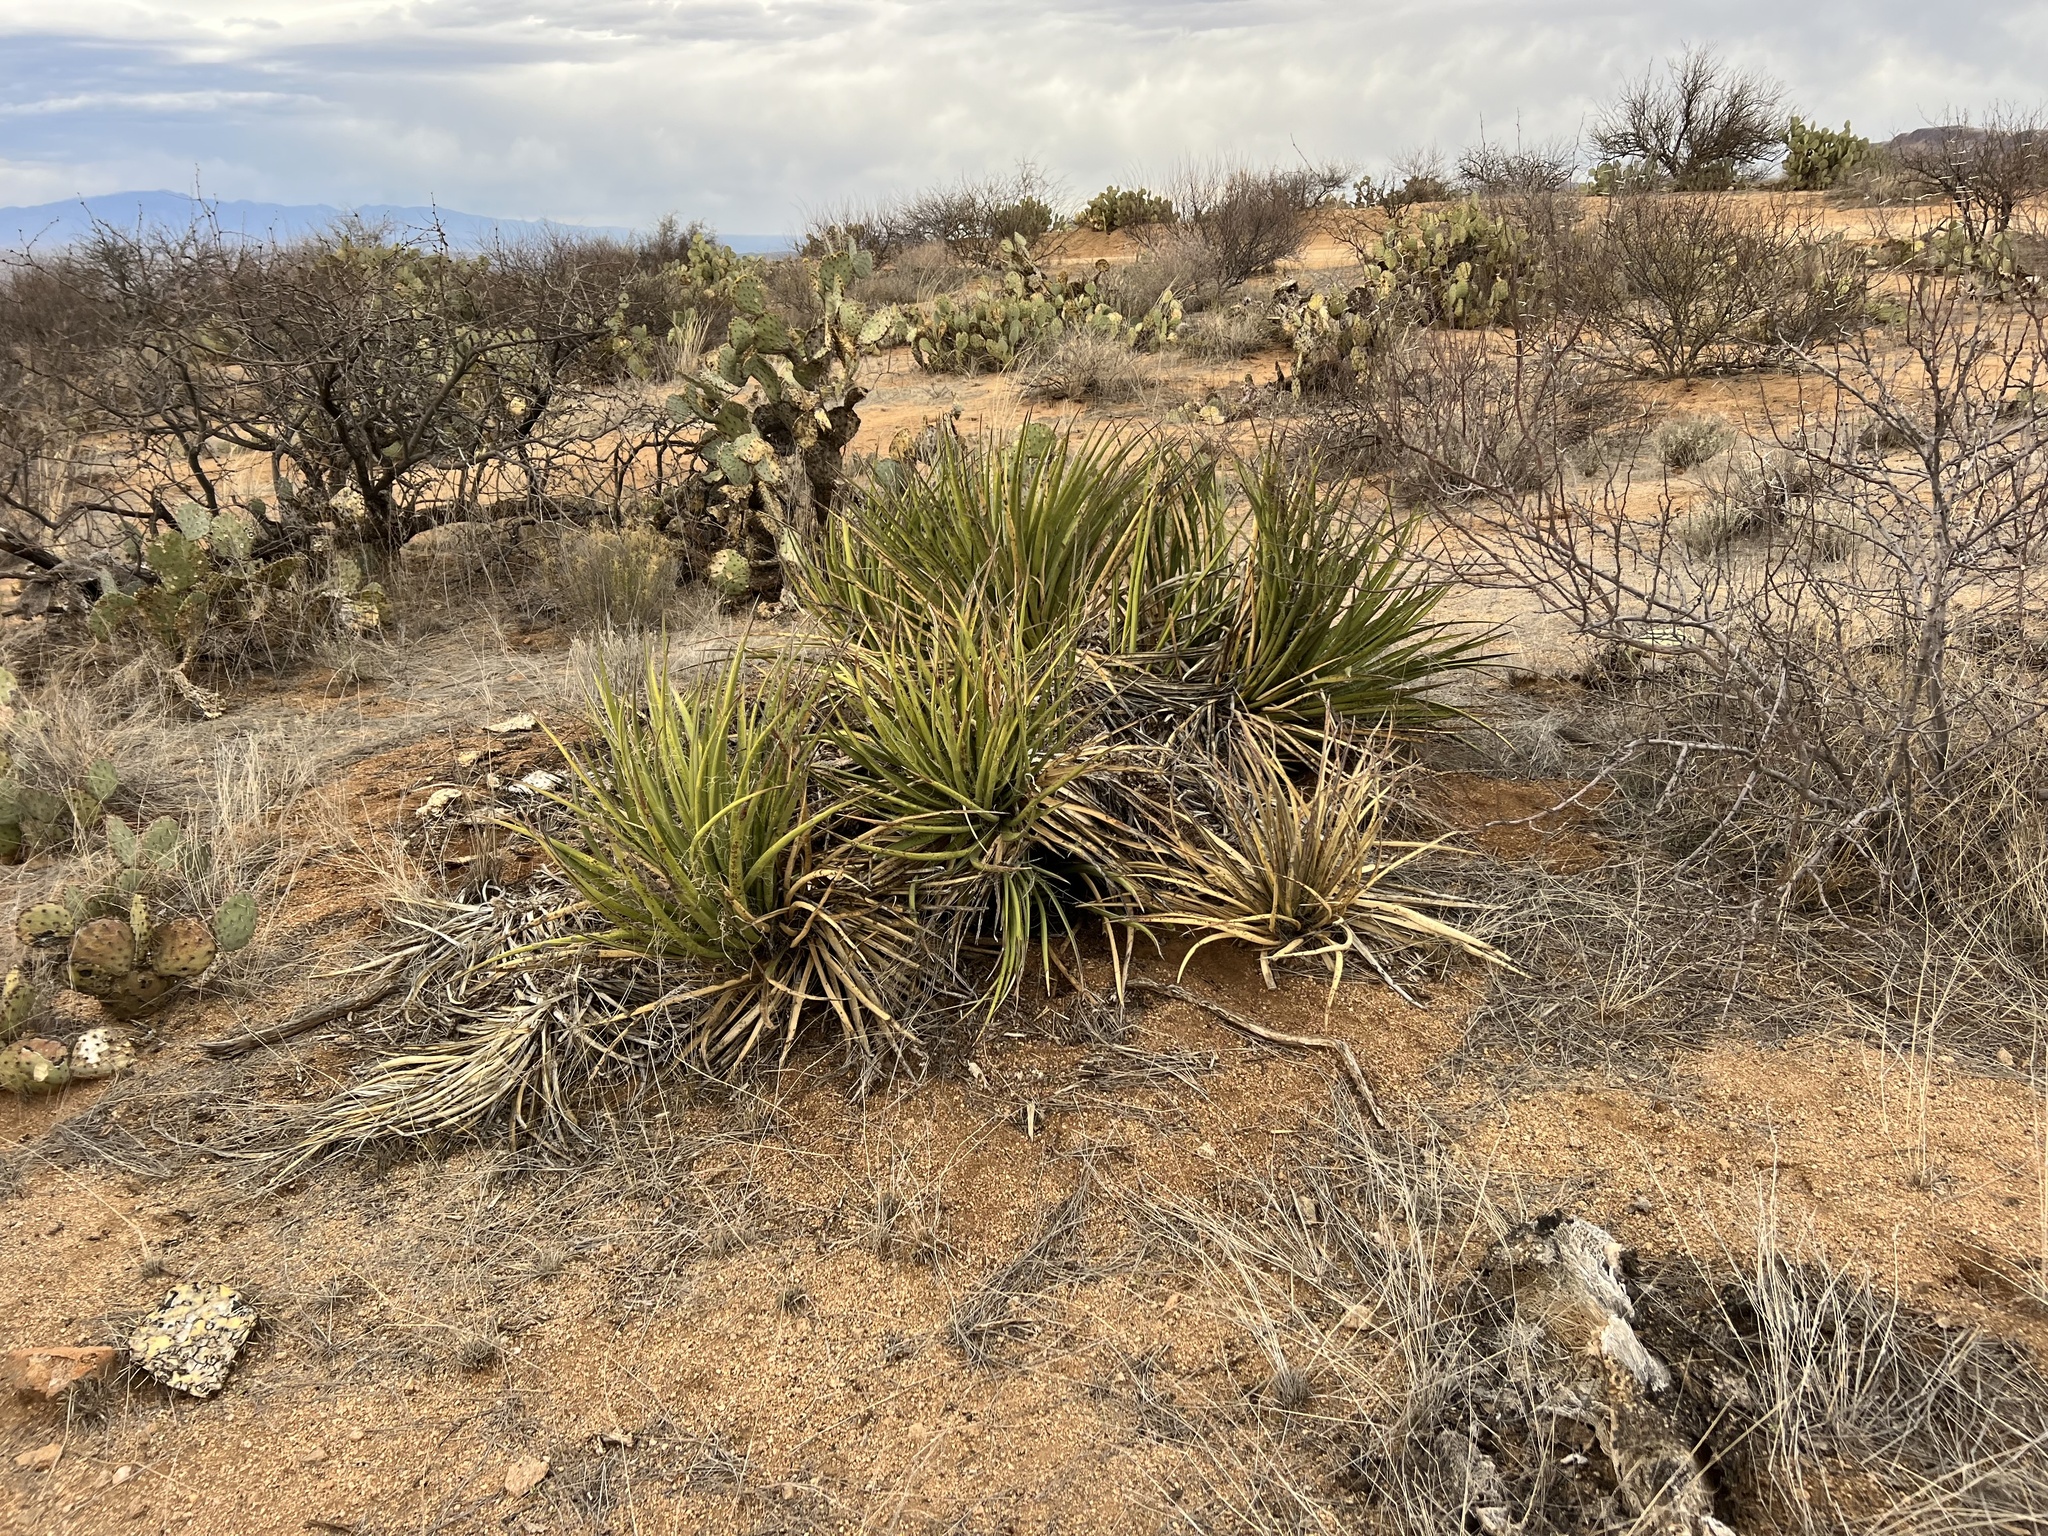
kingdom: Plantae
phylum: Tracheophyta
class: Liliopsida
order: Asparagales
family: Asparagaceae
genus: Yucca
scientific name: Yucca baccata
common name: Banana yucca
